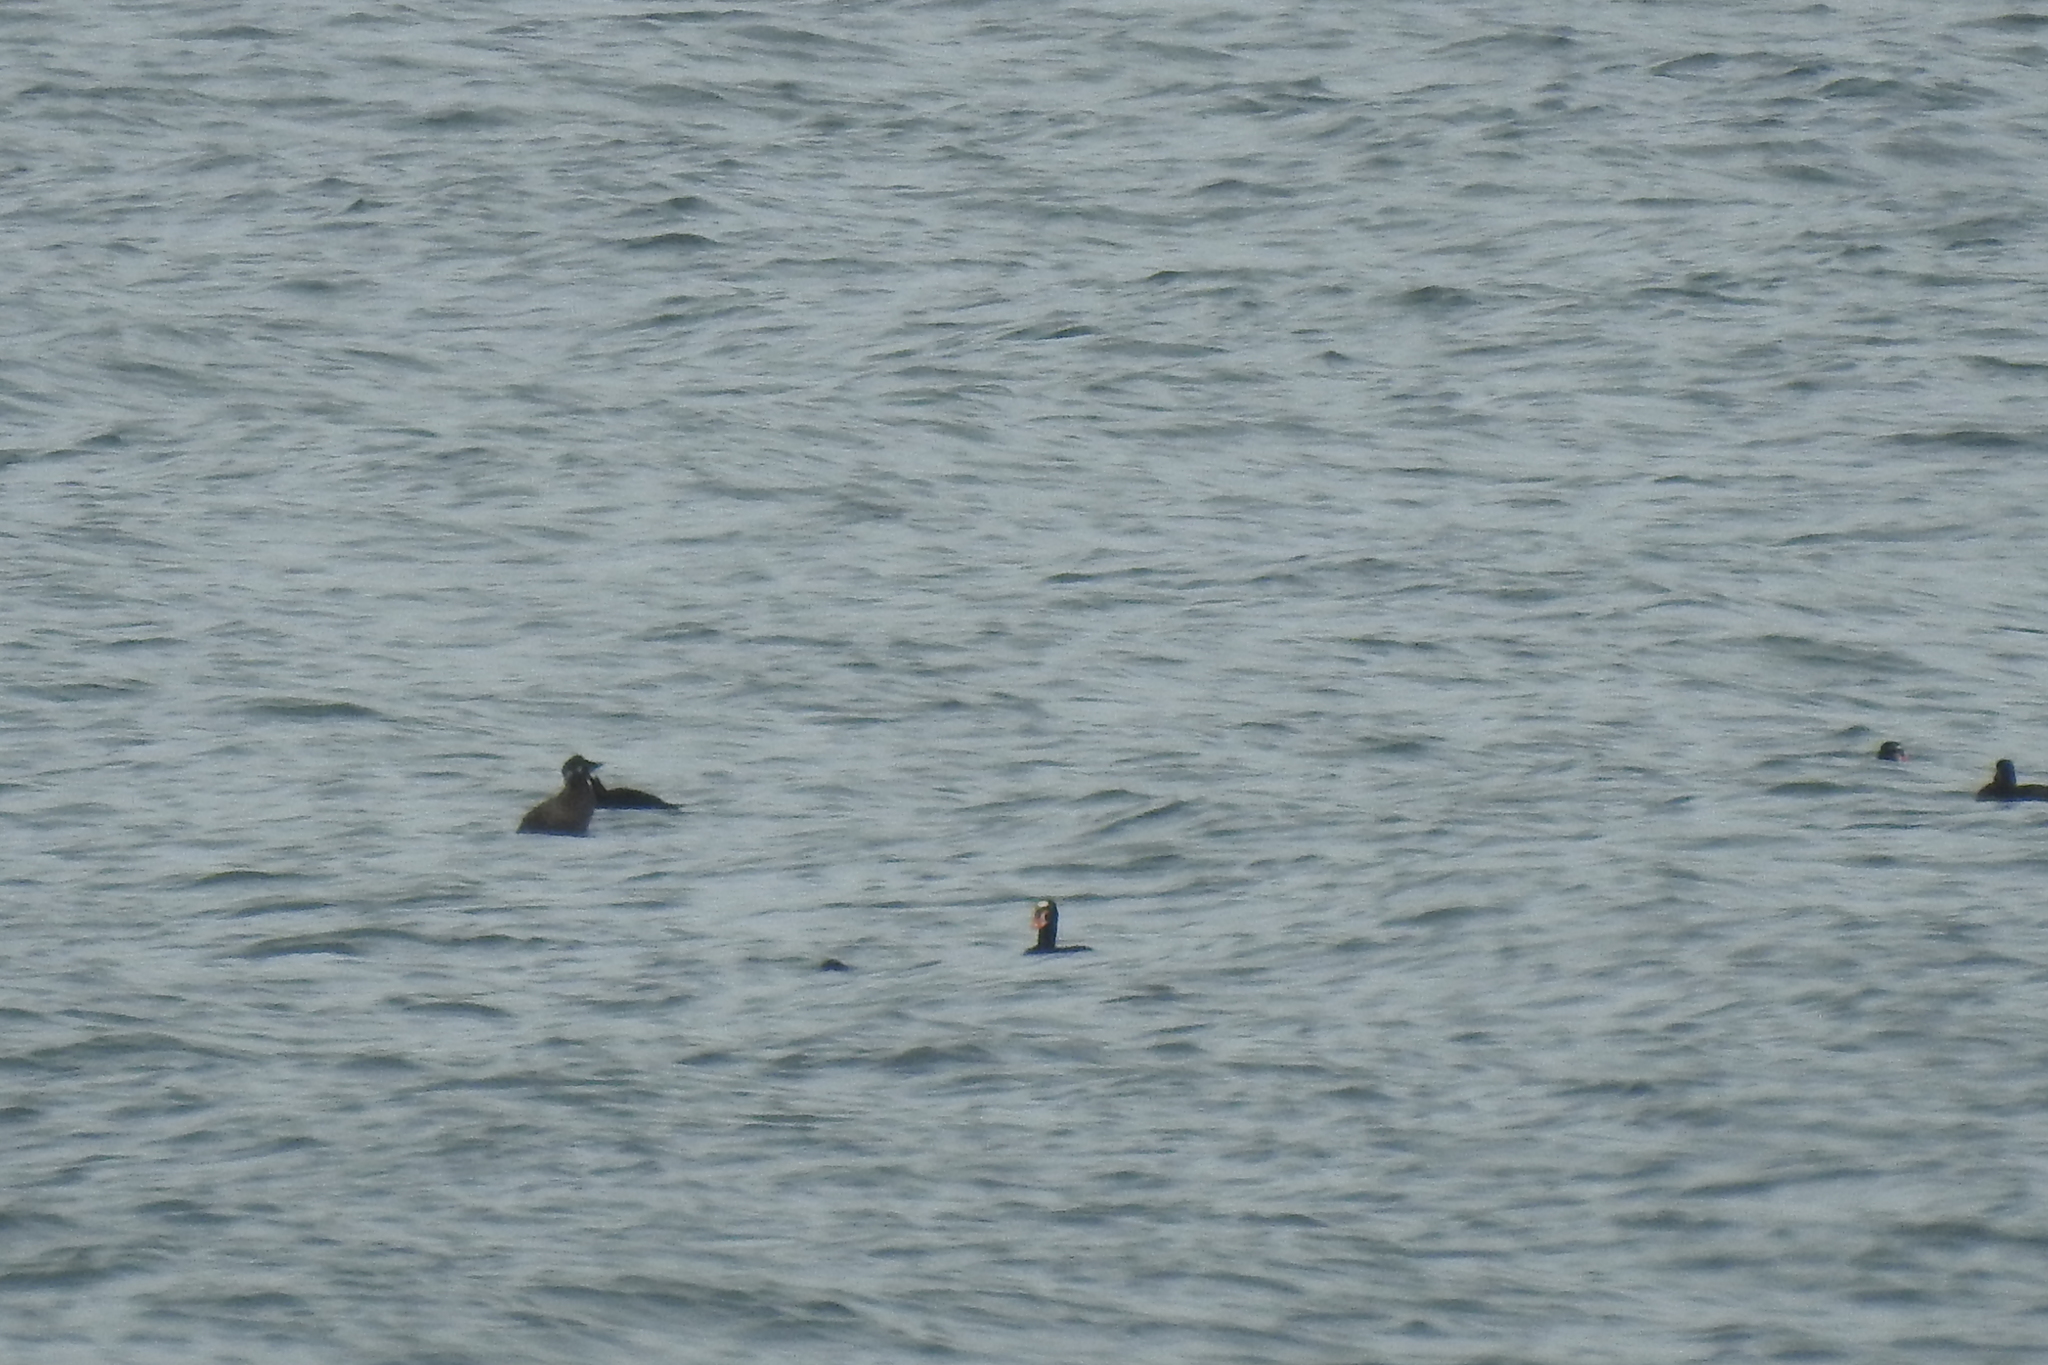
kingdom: Animalia
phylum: Chordata
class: Aves
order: Anseriformes
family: Anatidae
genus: Melanitta
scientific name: Melanitta perspicillata
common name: Surf scoter
